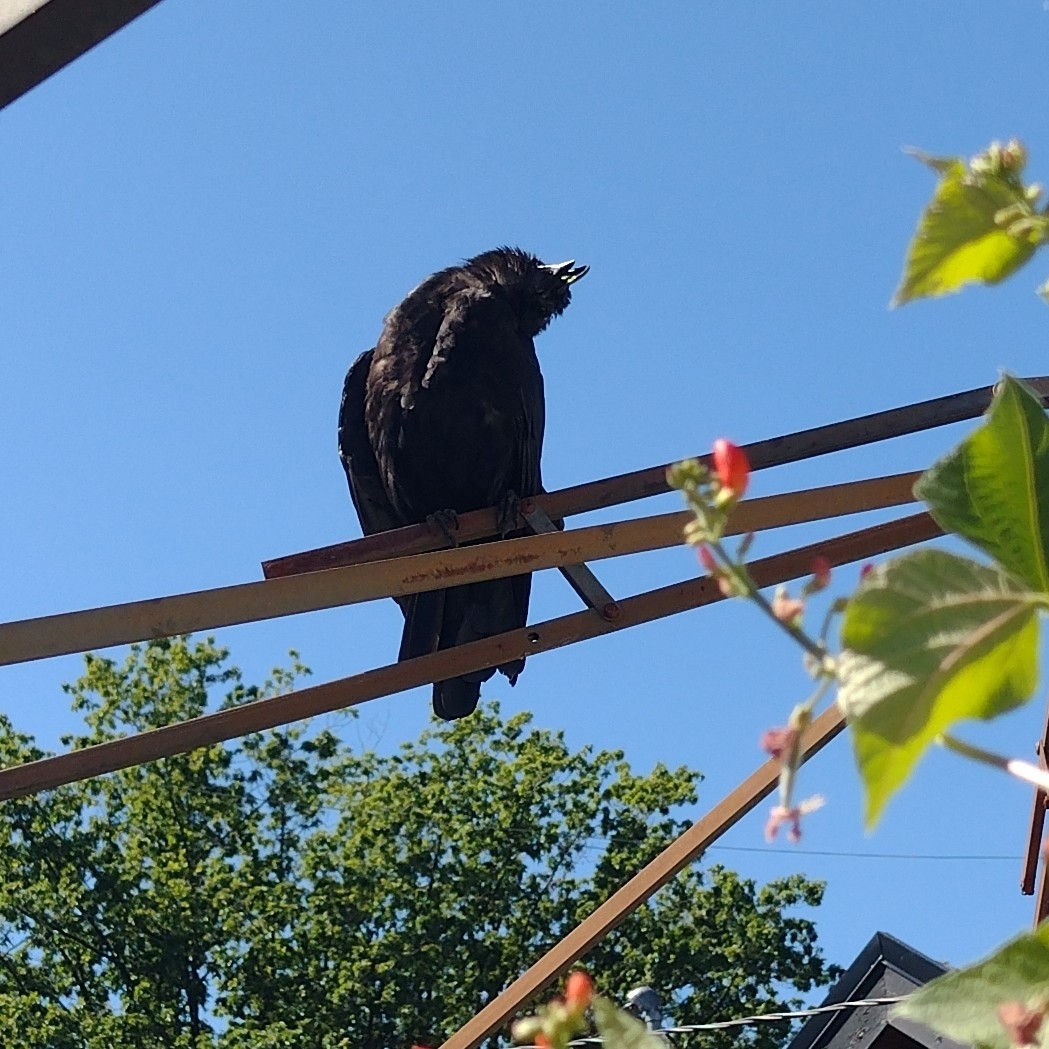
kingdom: Animalia
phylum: Chordata
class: Aves
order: Passeriformes
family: Corvidae
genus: Corvus
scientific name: Corvus brachyrhynchos
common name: American crow
